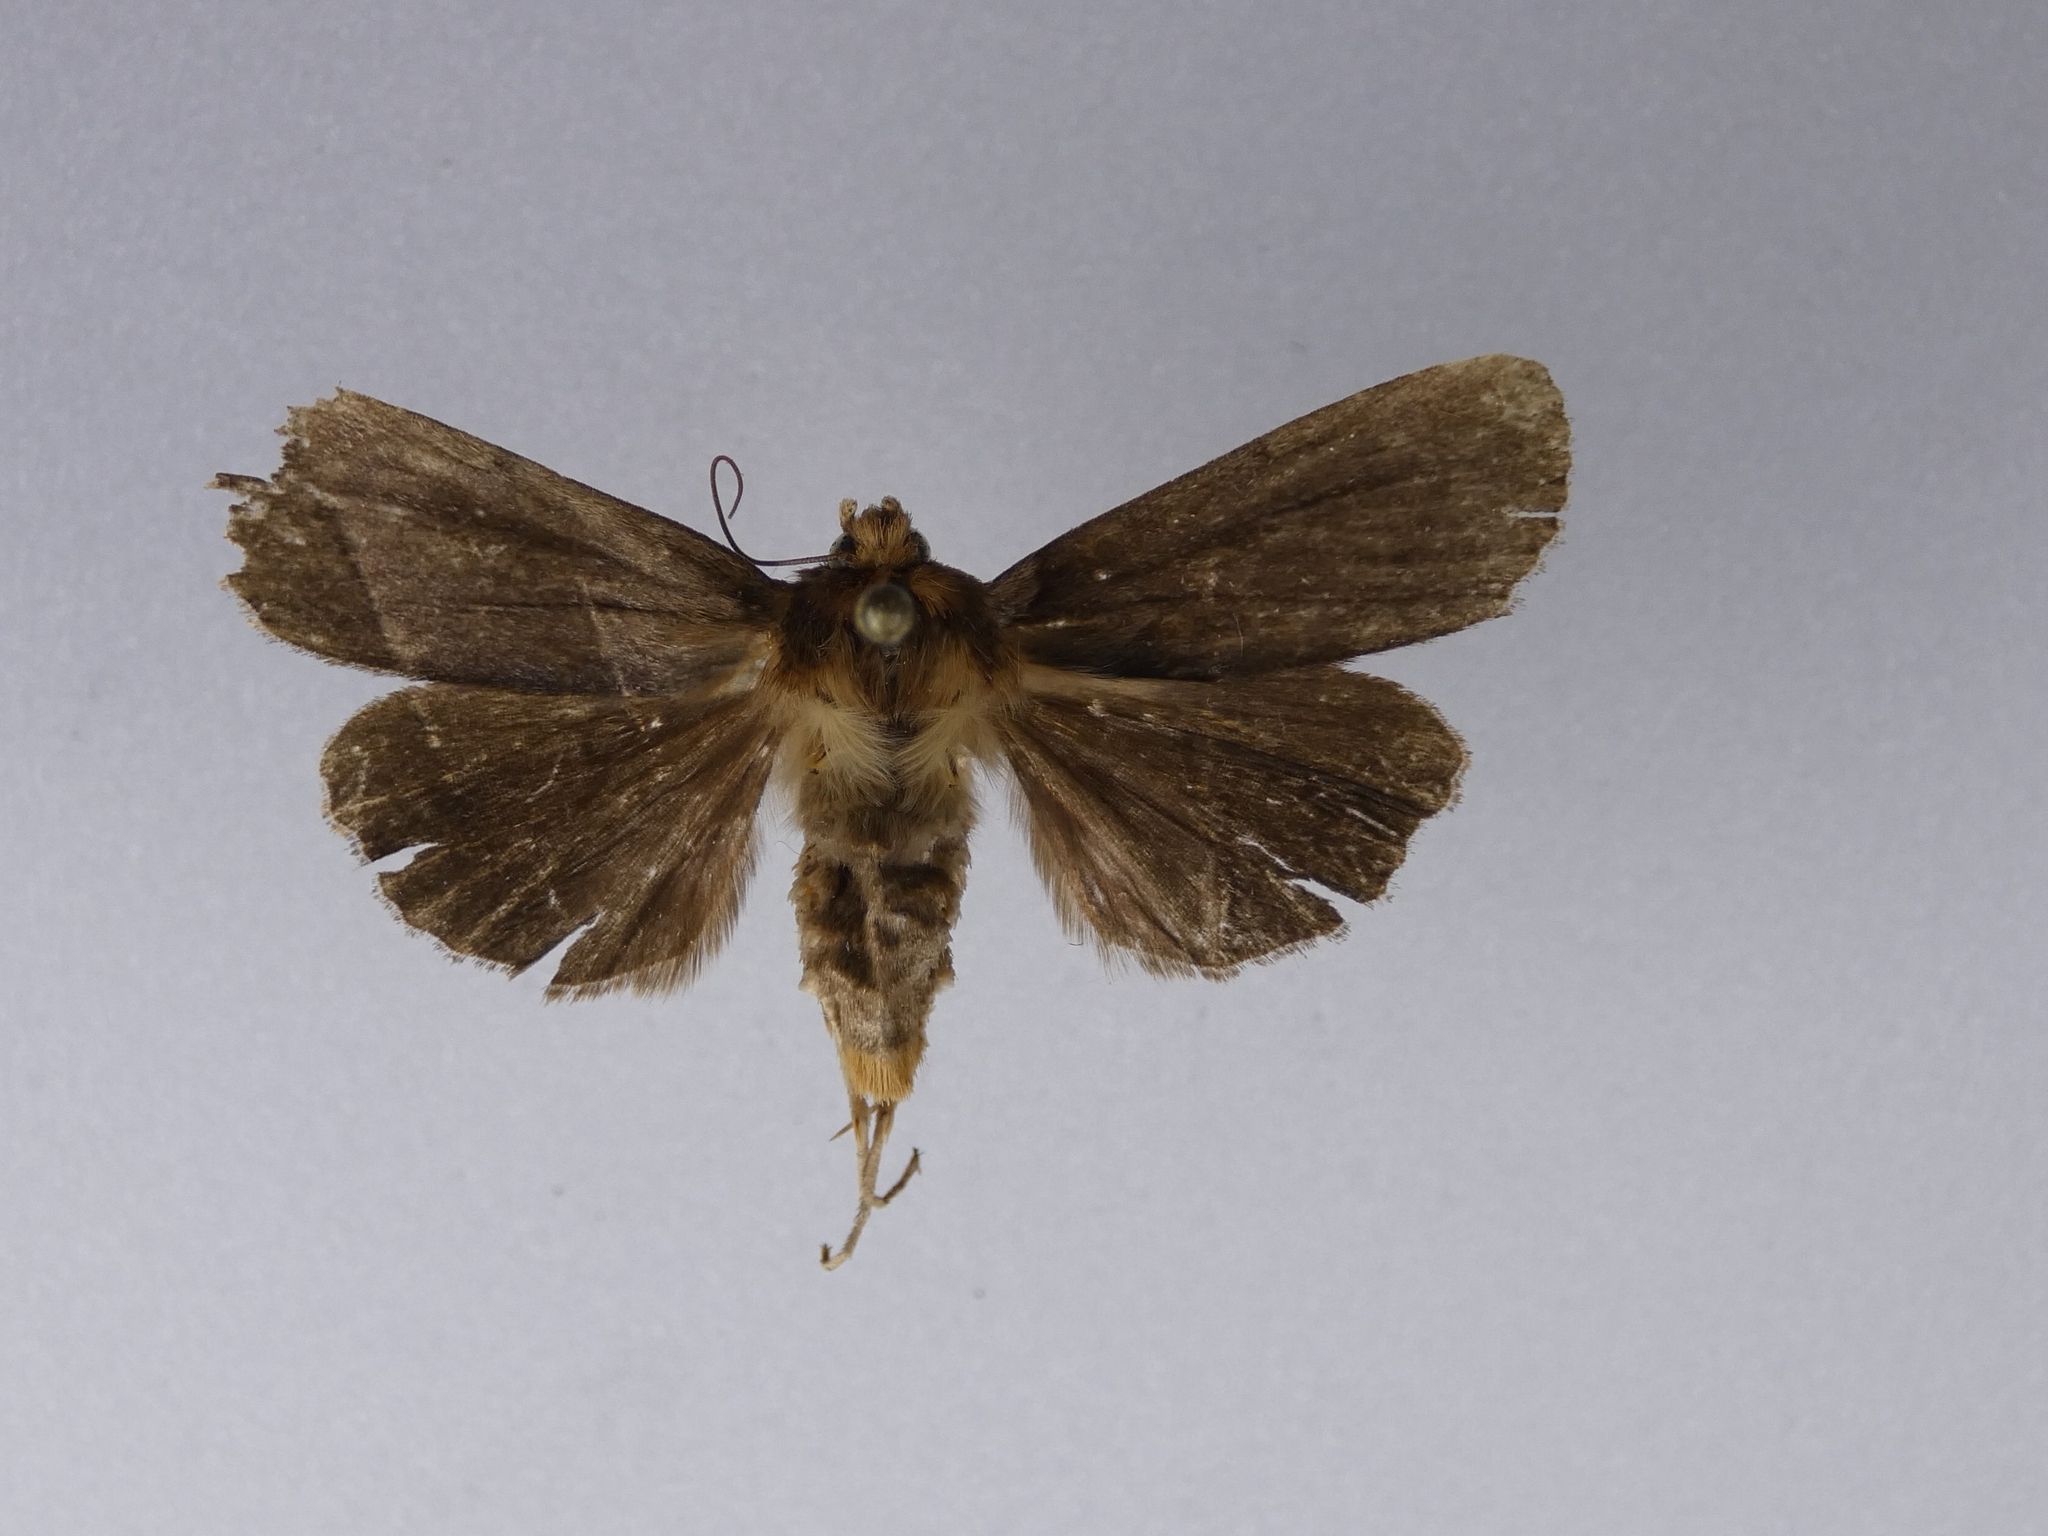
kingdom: Animalia
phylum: Arthropoda
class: Insecta
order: Lepidoptera
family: Noctuidae
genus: Bityla
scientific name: Bityla defigurata
